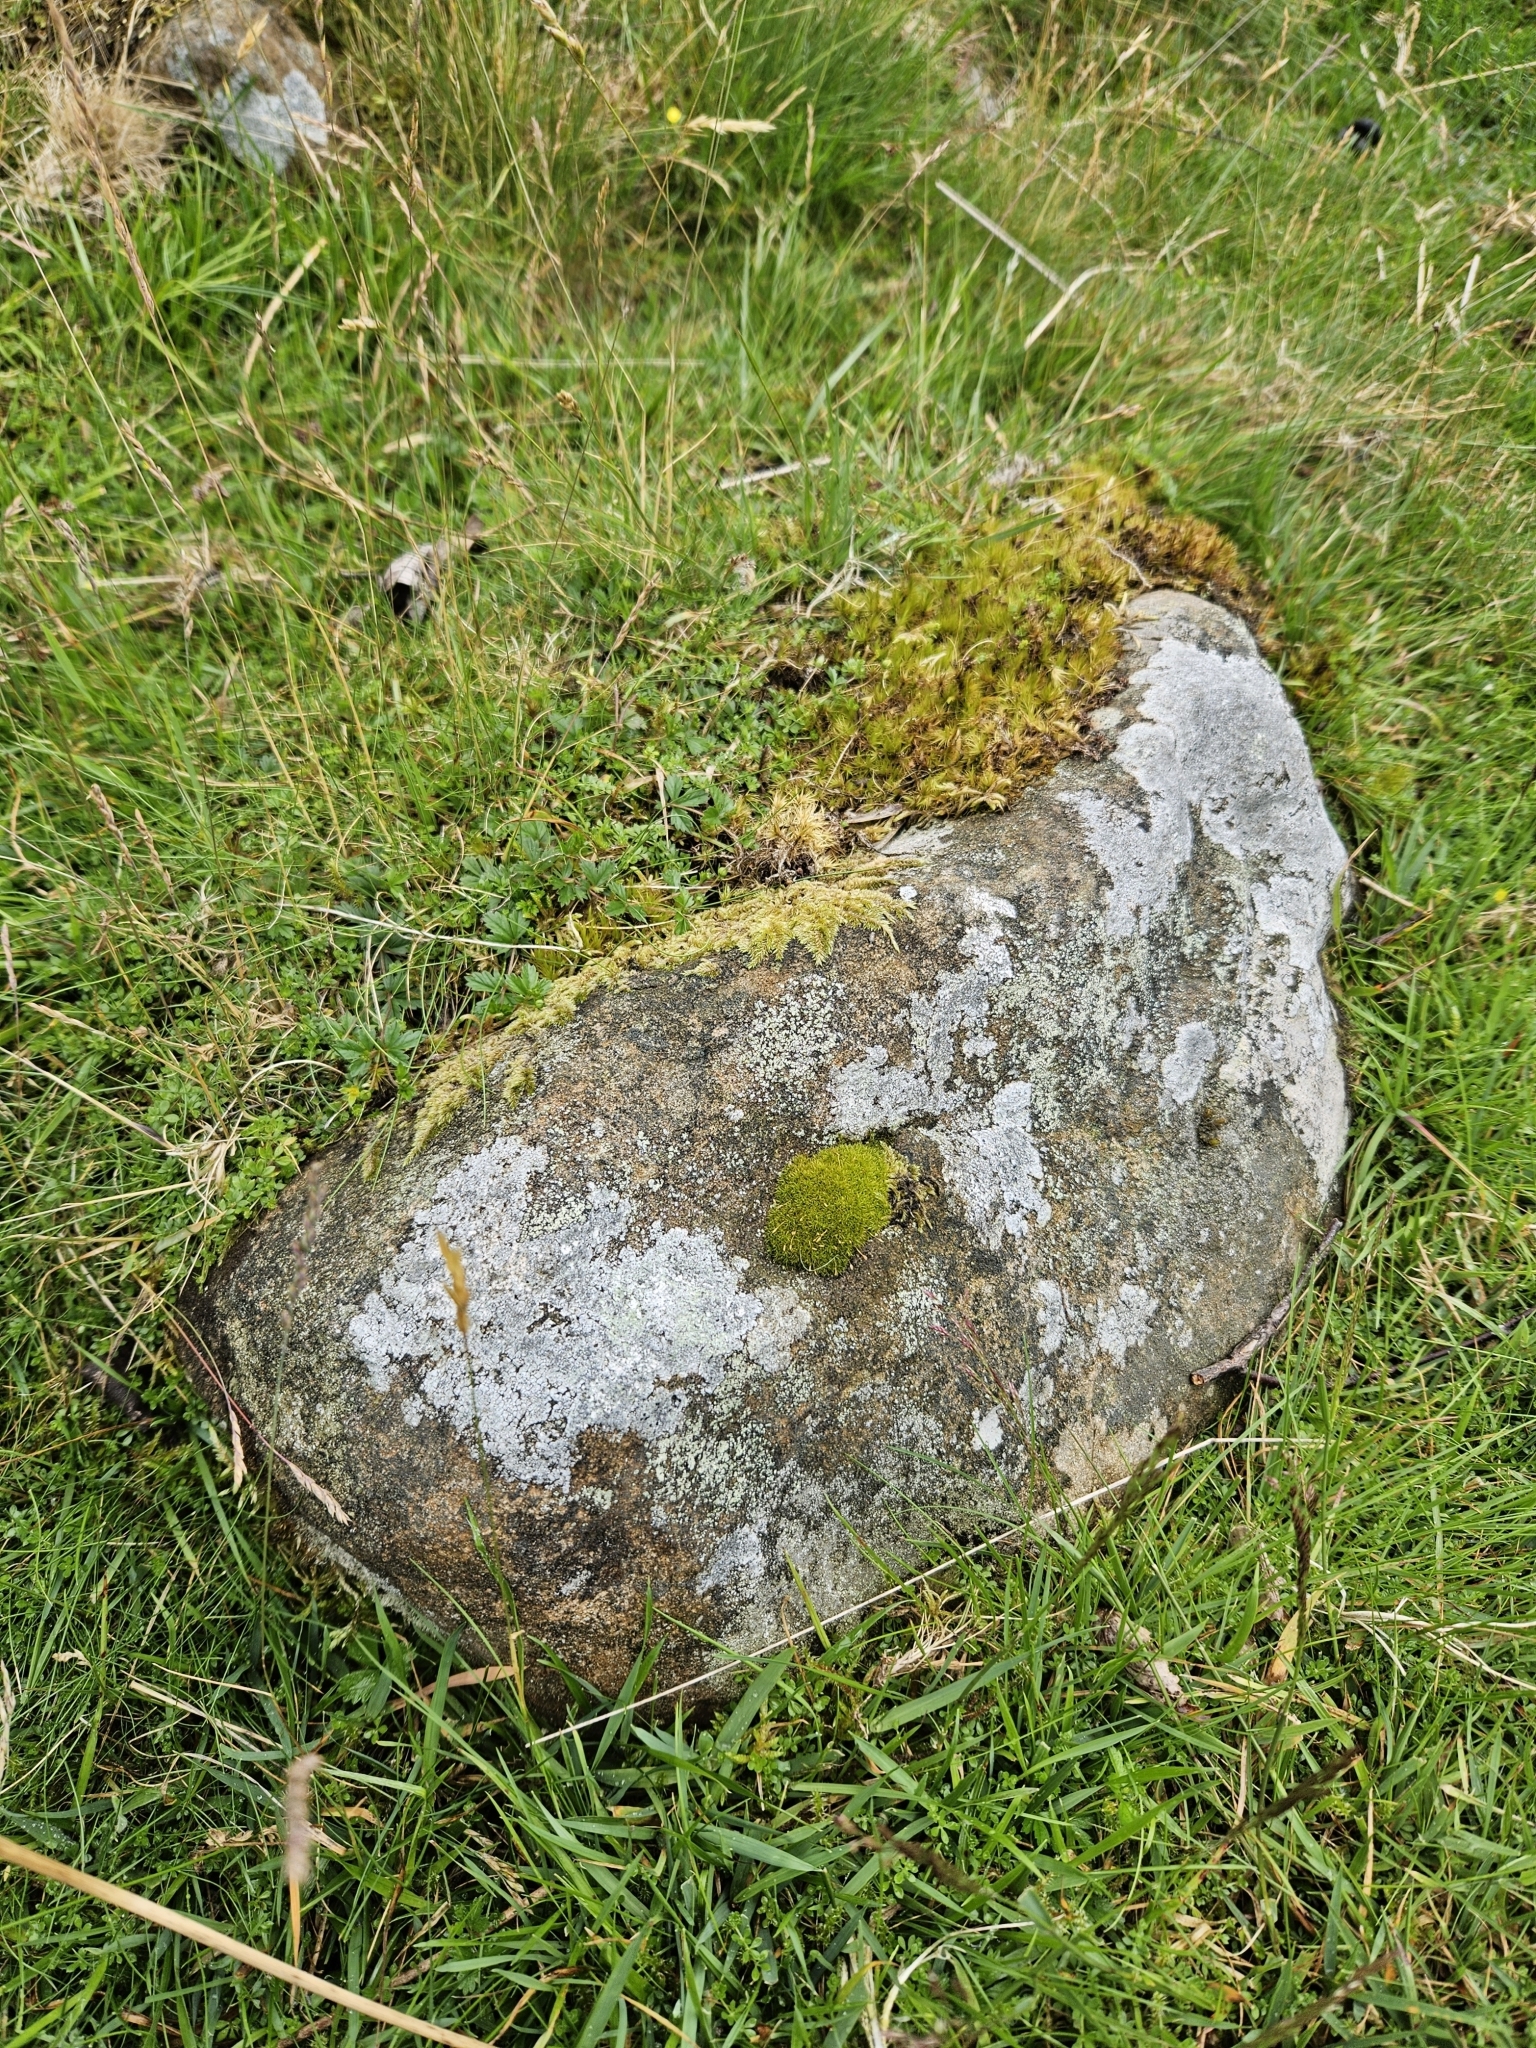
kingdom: Plantae
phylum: Bryophyta
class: Bryopsida
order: Dicranales
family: Rhabdoweisiaceae
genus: Dicranoweisia
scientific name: Dicranoweisia cirrata
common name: Common pincushion
